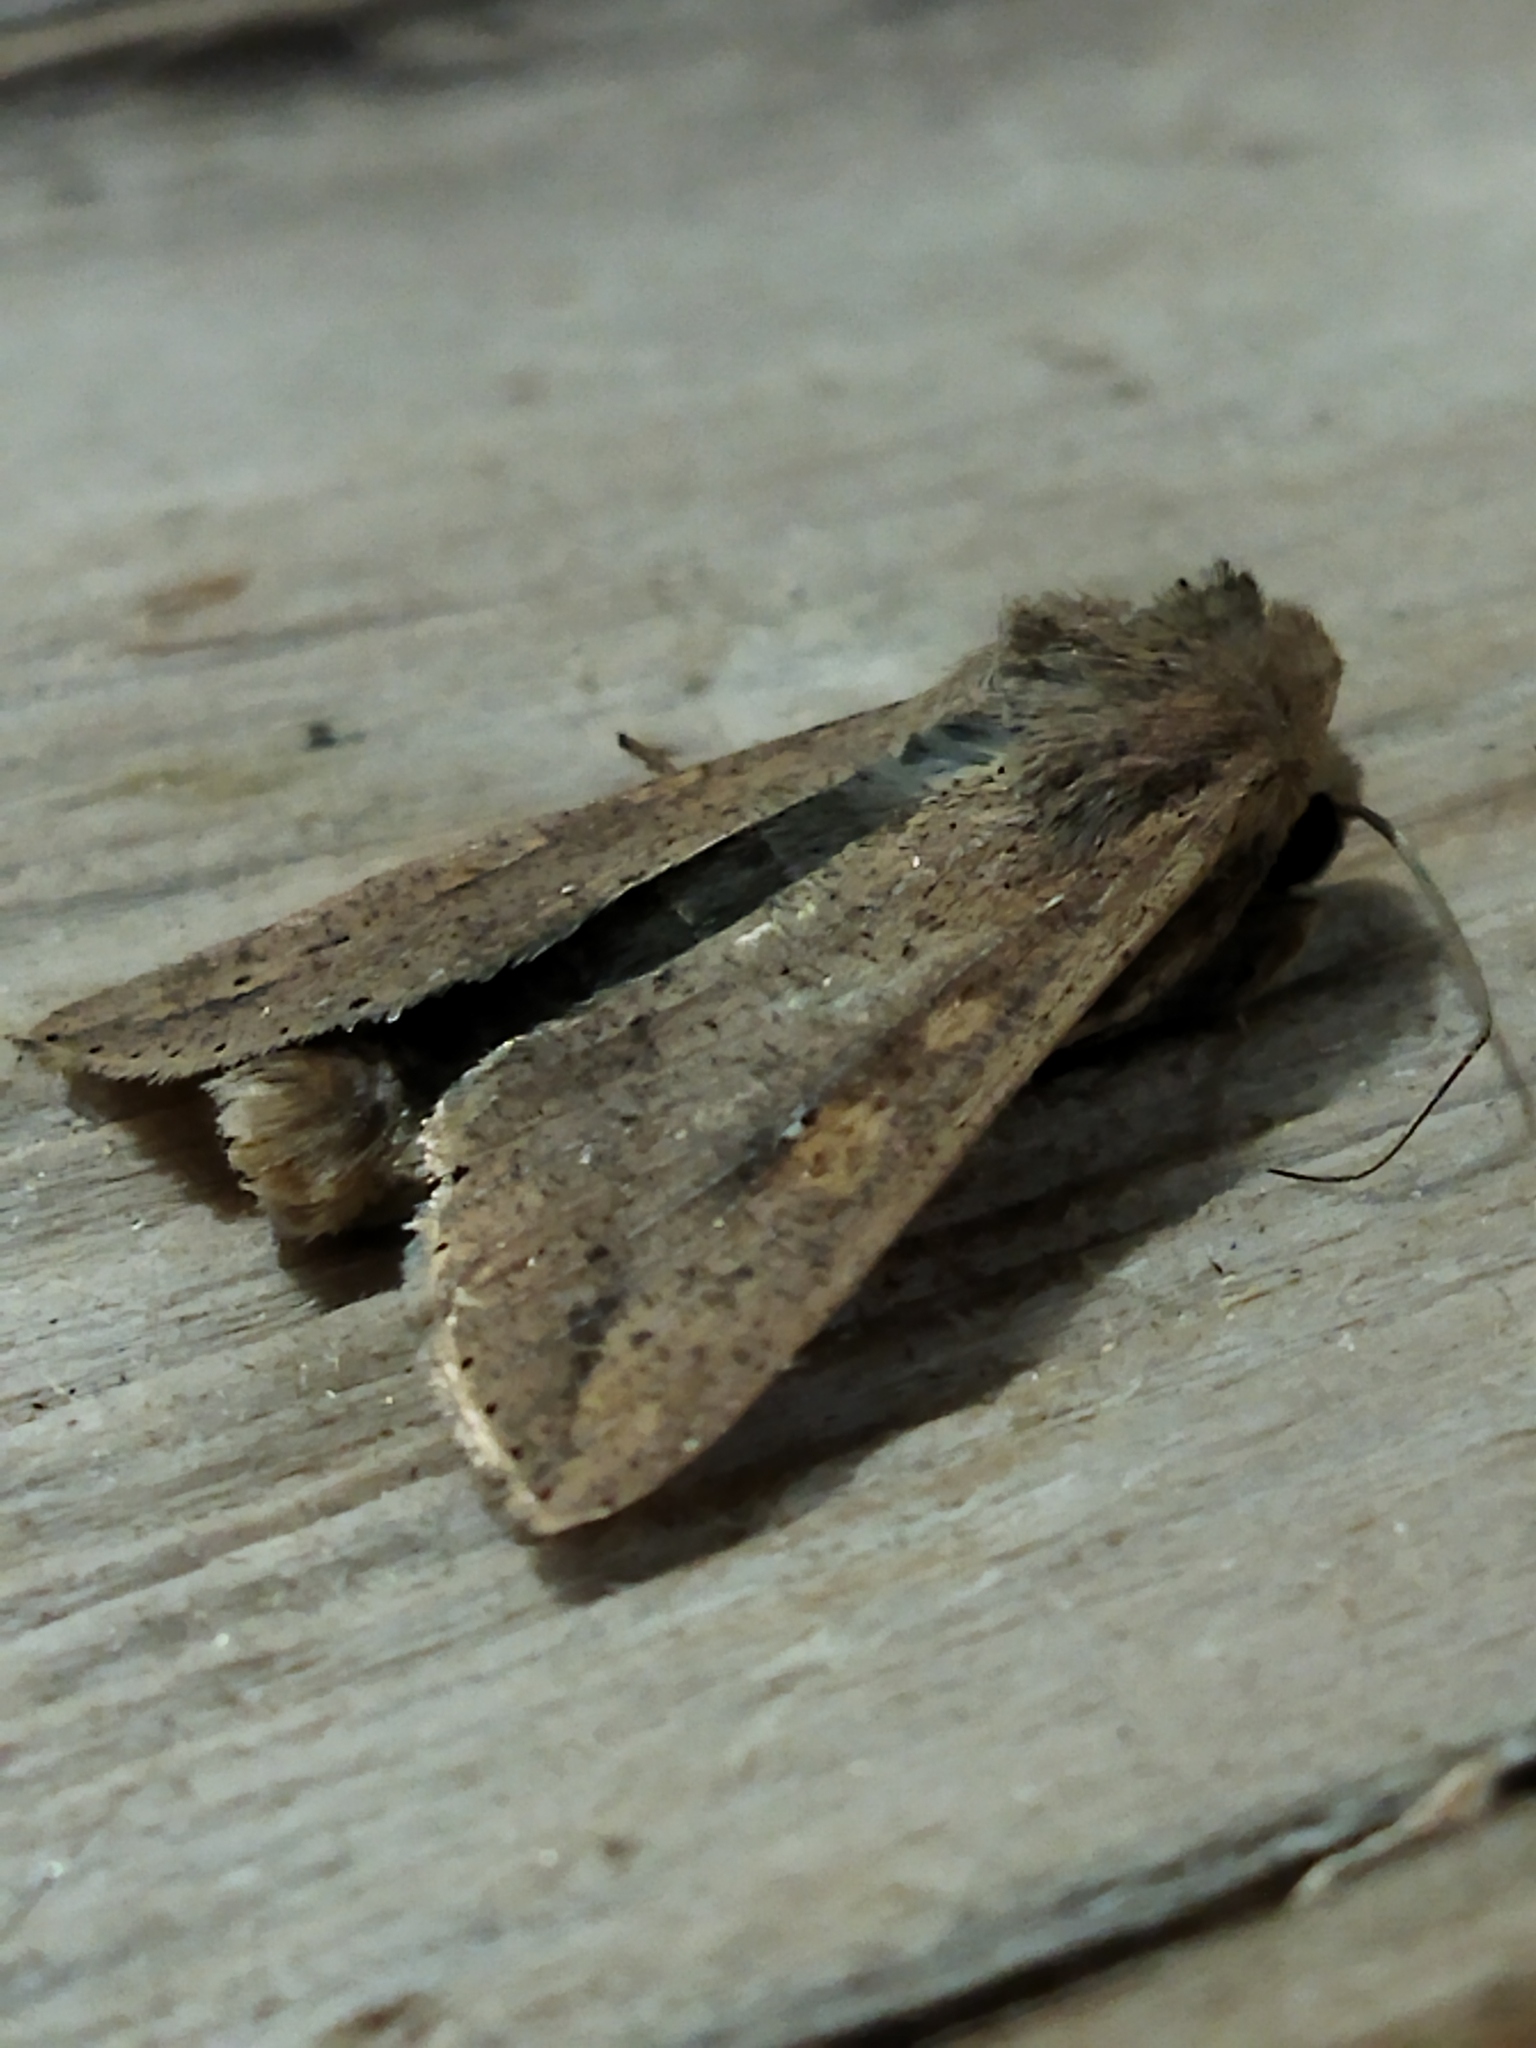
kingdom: Animalia
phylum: Arthropoda
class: Insecta
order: Lepidoptera
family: Noctuidae
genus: Mythimna
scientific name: Mythimna unipuncta
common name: White-speck
